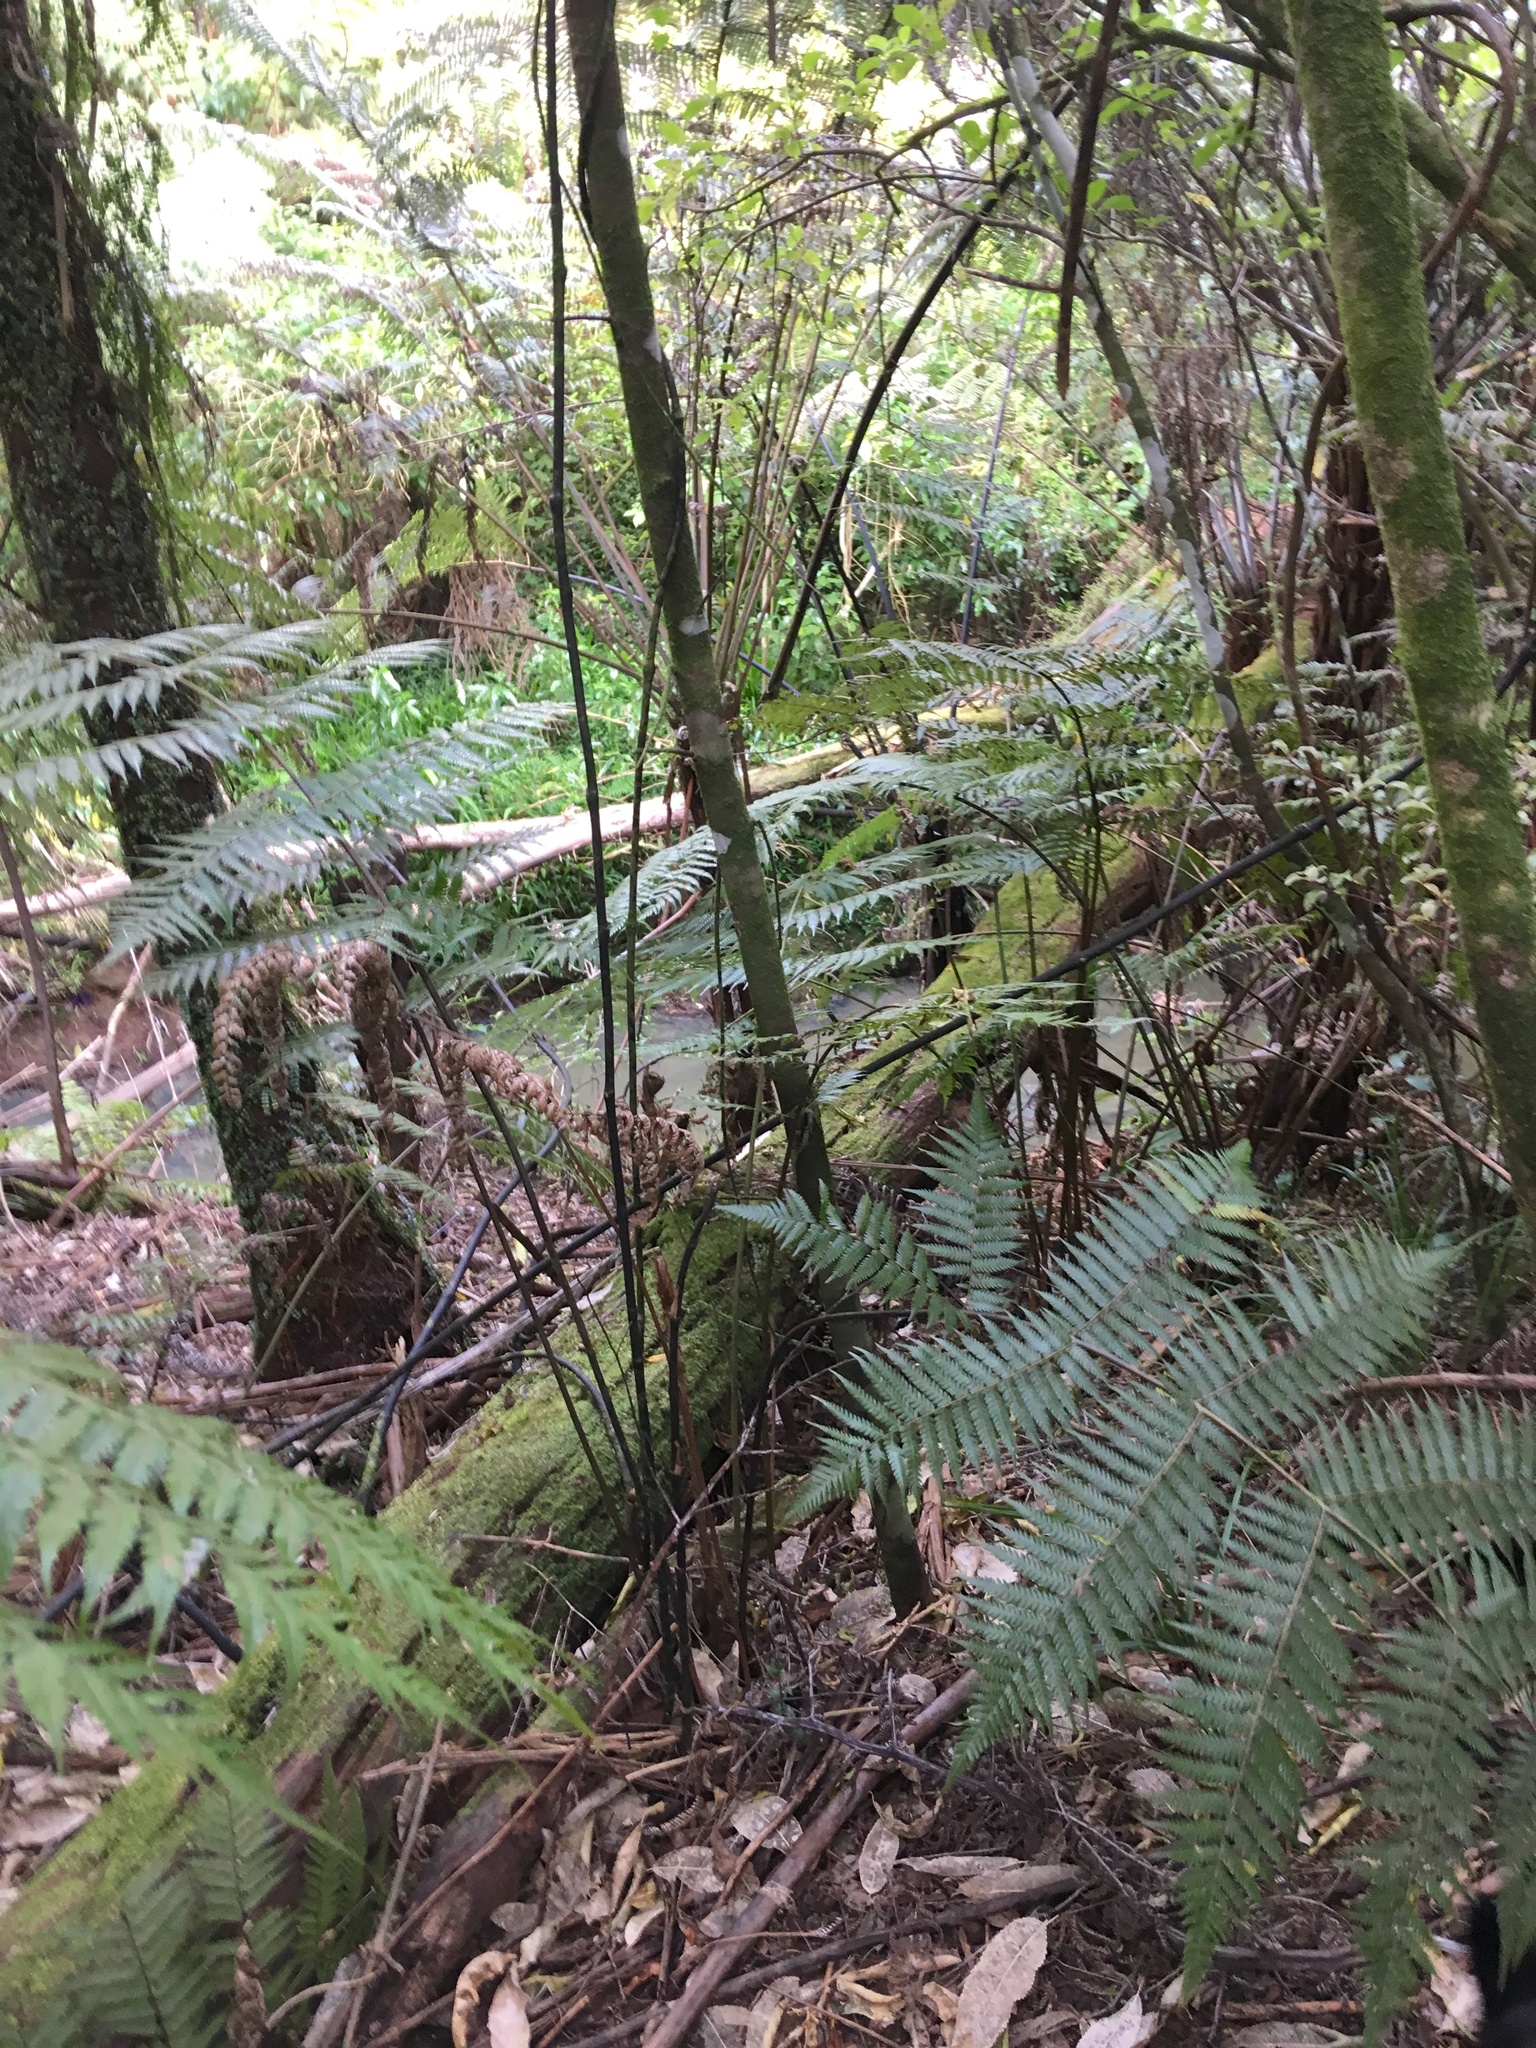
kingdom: Plantae
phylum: Tracheophyta
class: Polypodiopsida
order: Cyatheales
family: Cyatheaceae
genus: Alsophila
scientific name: Alsophila dealbata
